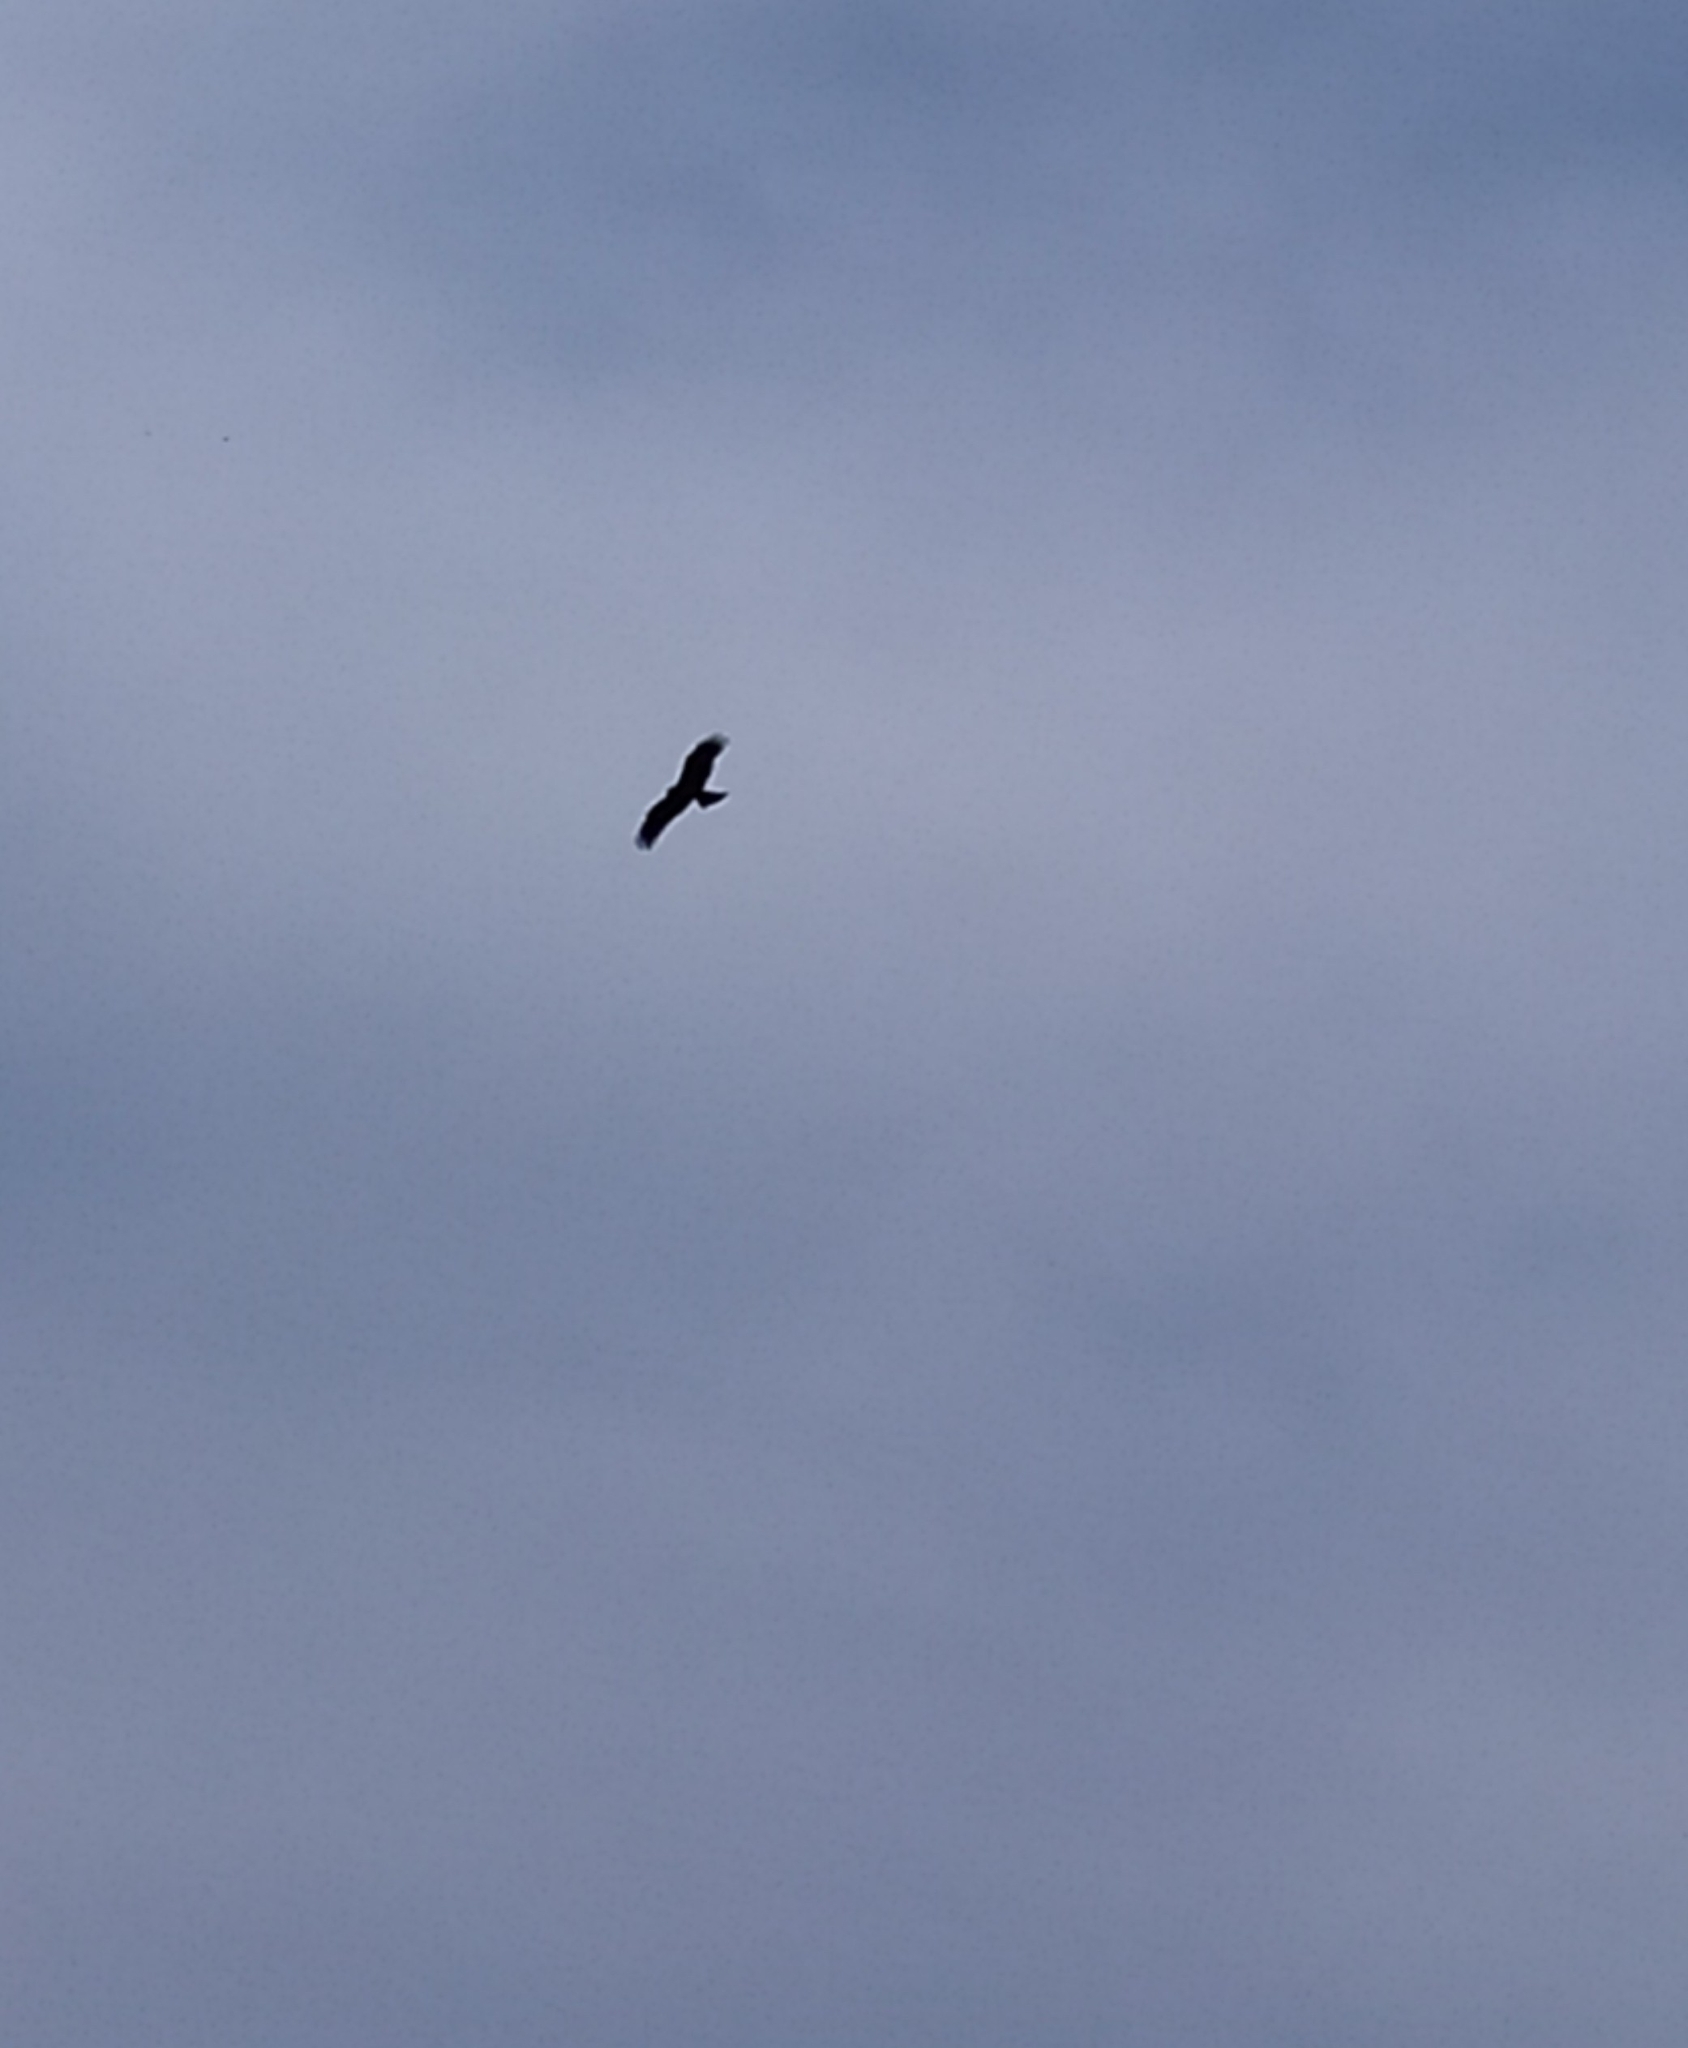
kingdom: Animalia
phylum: Chordata
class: Aves
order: Accipitriformes
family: Accipitridae
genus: Milvus
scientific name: Milvus migrans
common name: Black kite
